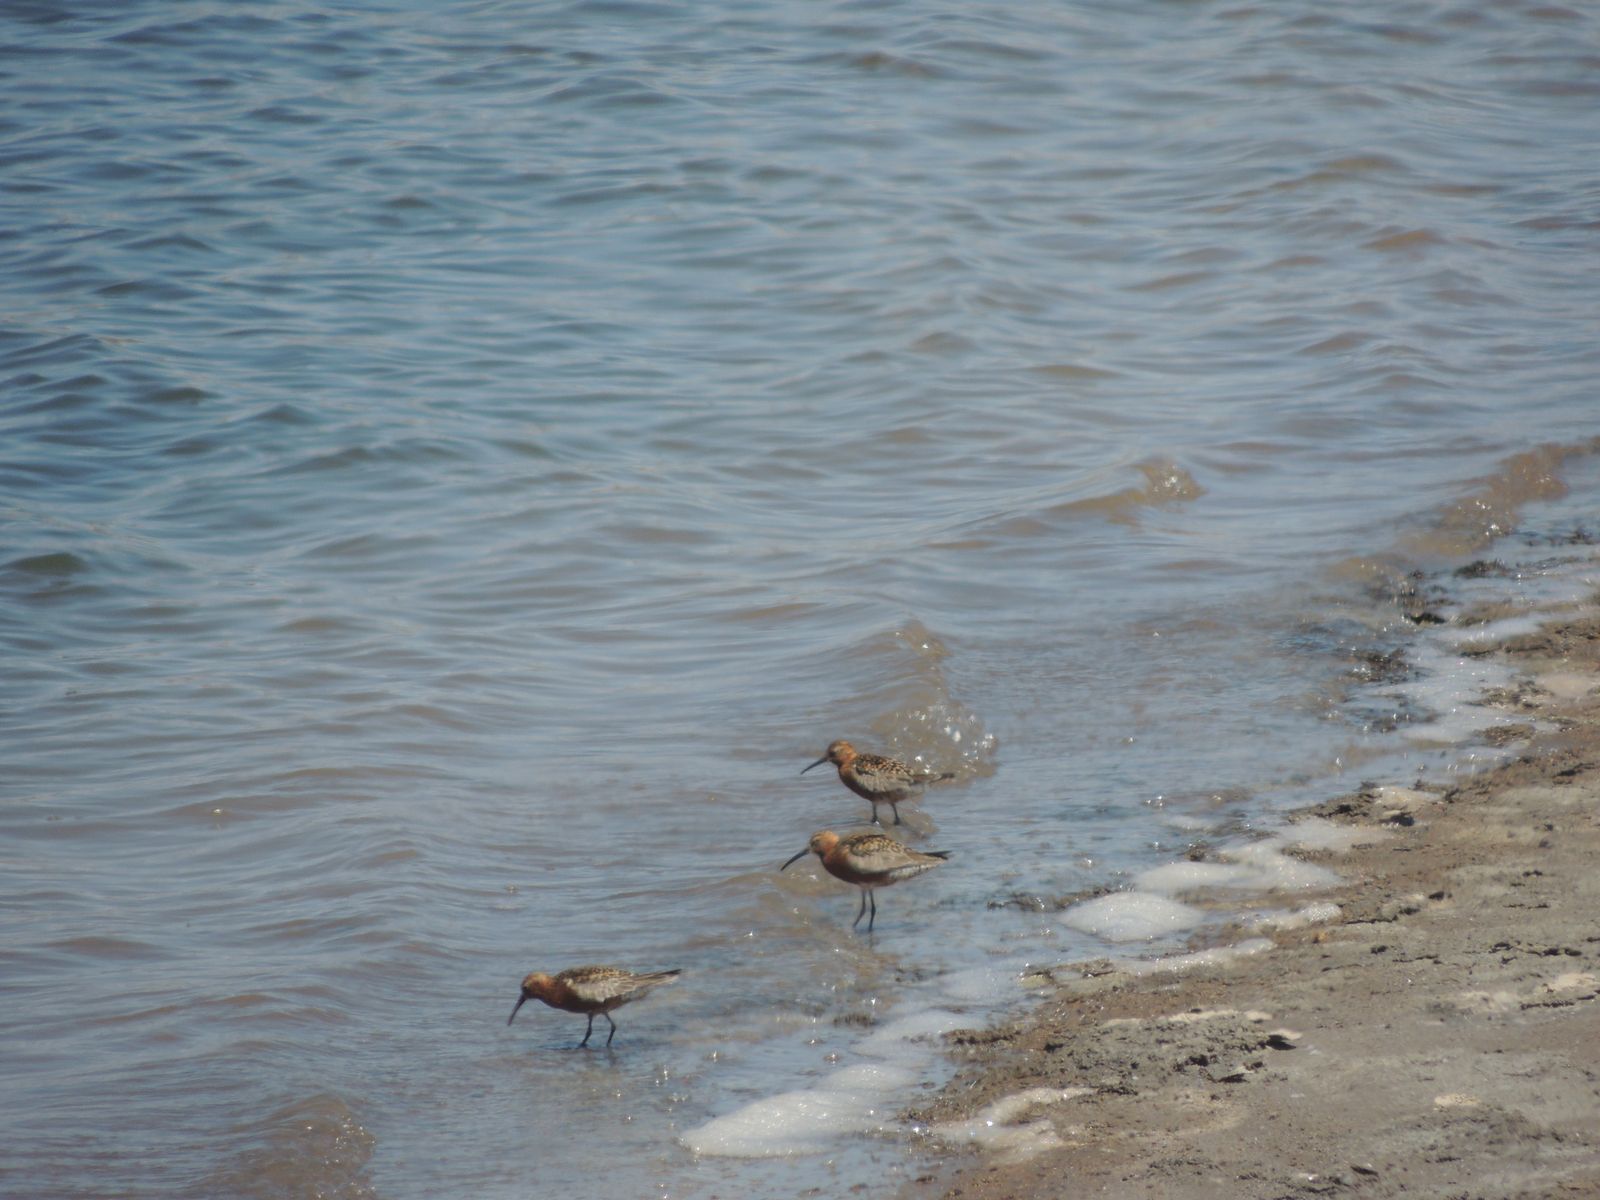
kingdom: Animalia
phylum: Chordata
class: Aves
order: Charadriiformes
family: Scolopacidae
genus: Calidris
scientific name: Calidris ferruginea
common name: Curlew sandpiper
